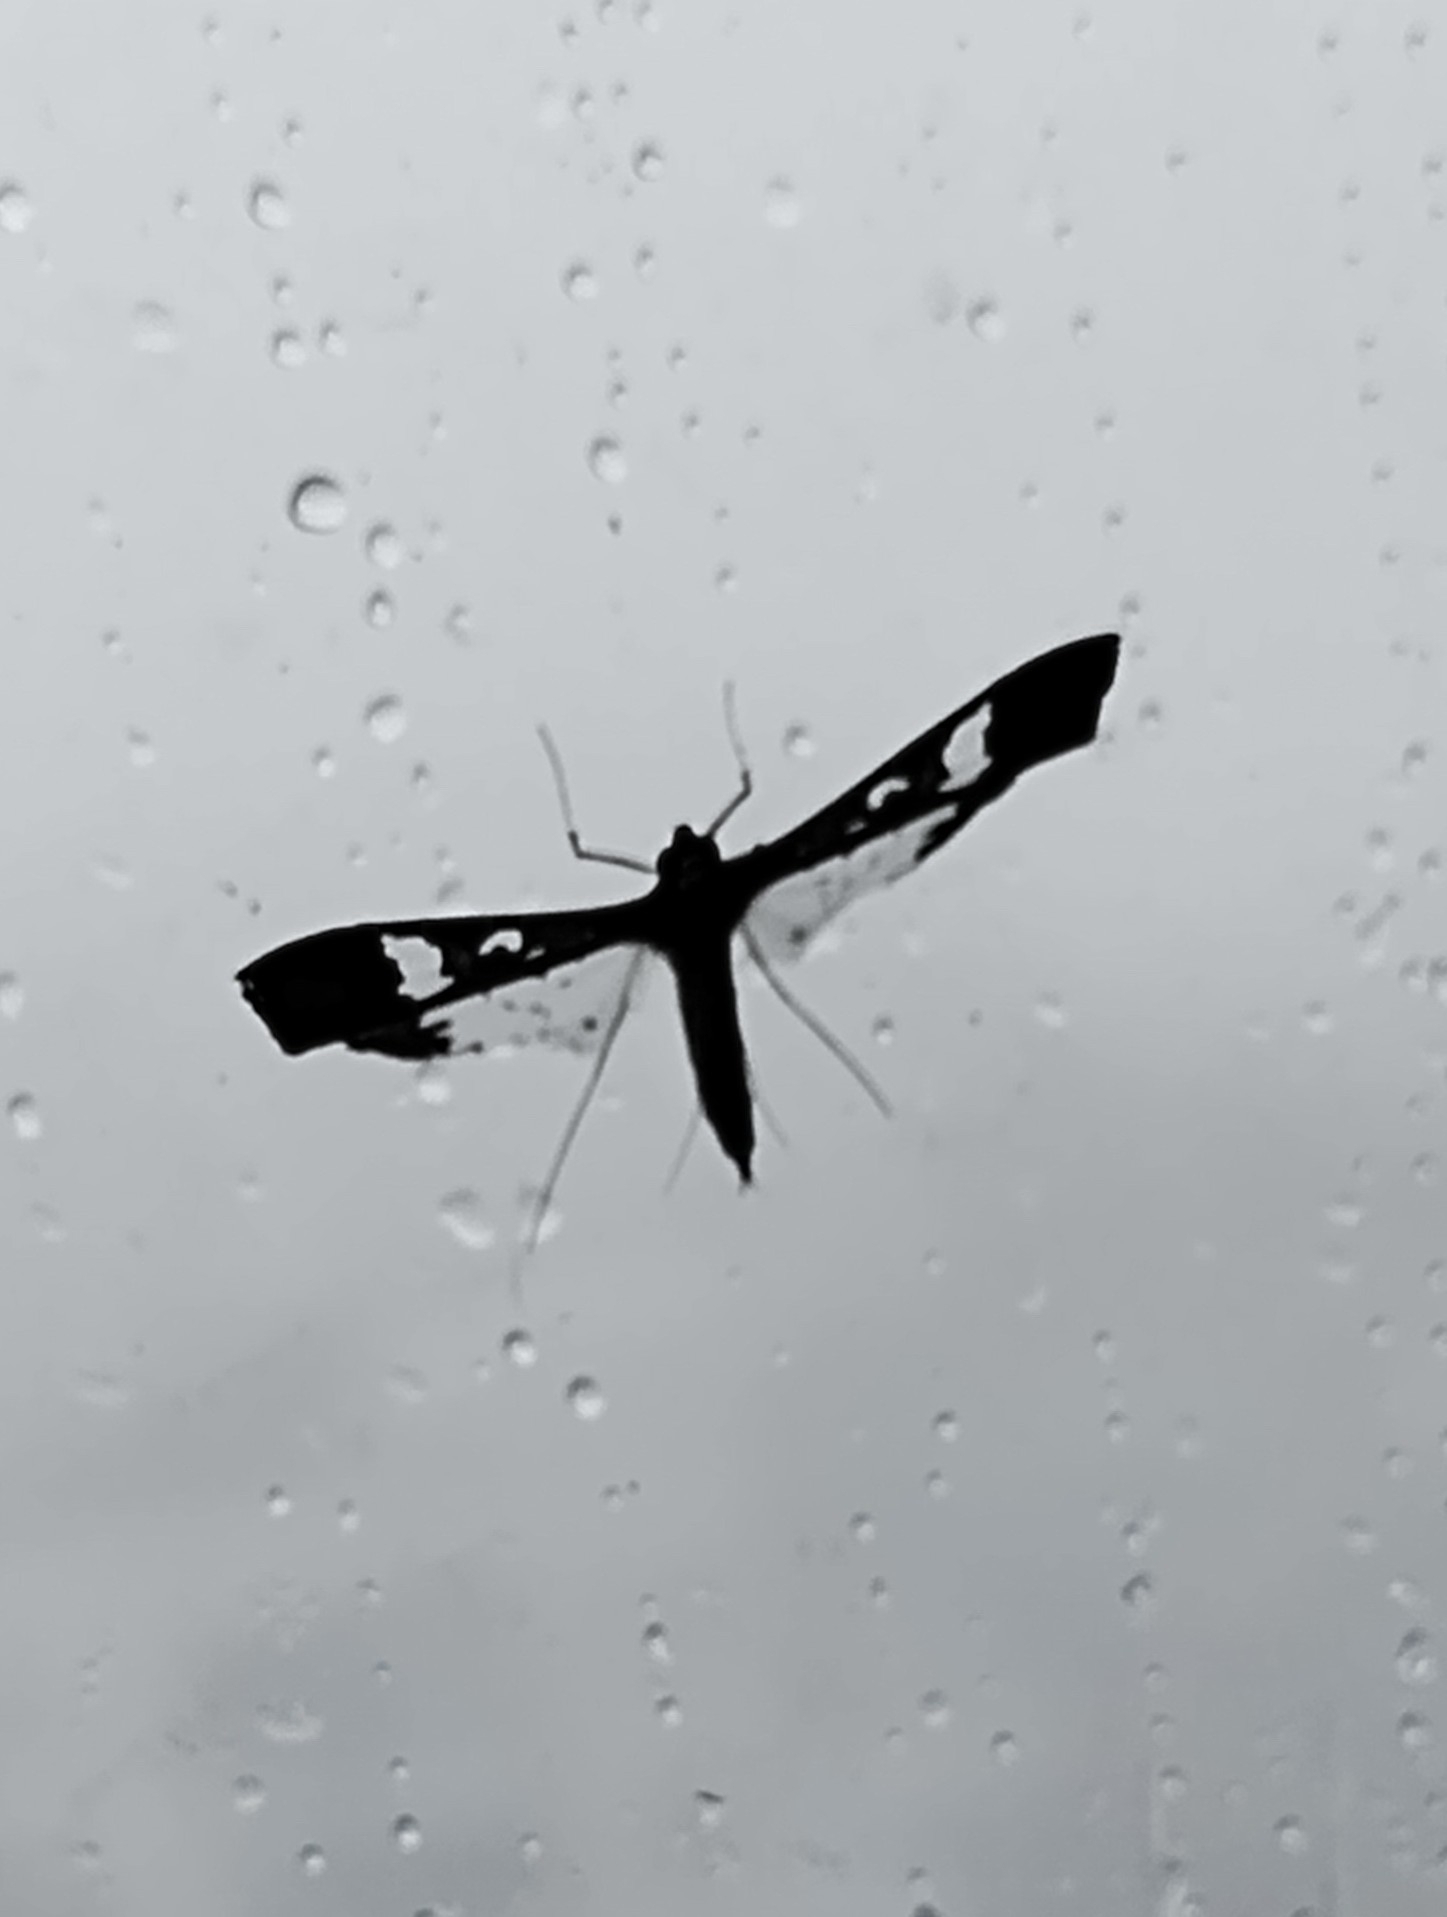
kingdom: Animalia
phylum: Arthropoda
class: Insecta
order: Lepidoptera
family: Crambidae
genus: Maruca
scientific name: Maruca vitrata
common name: Maruca pod borer
